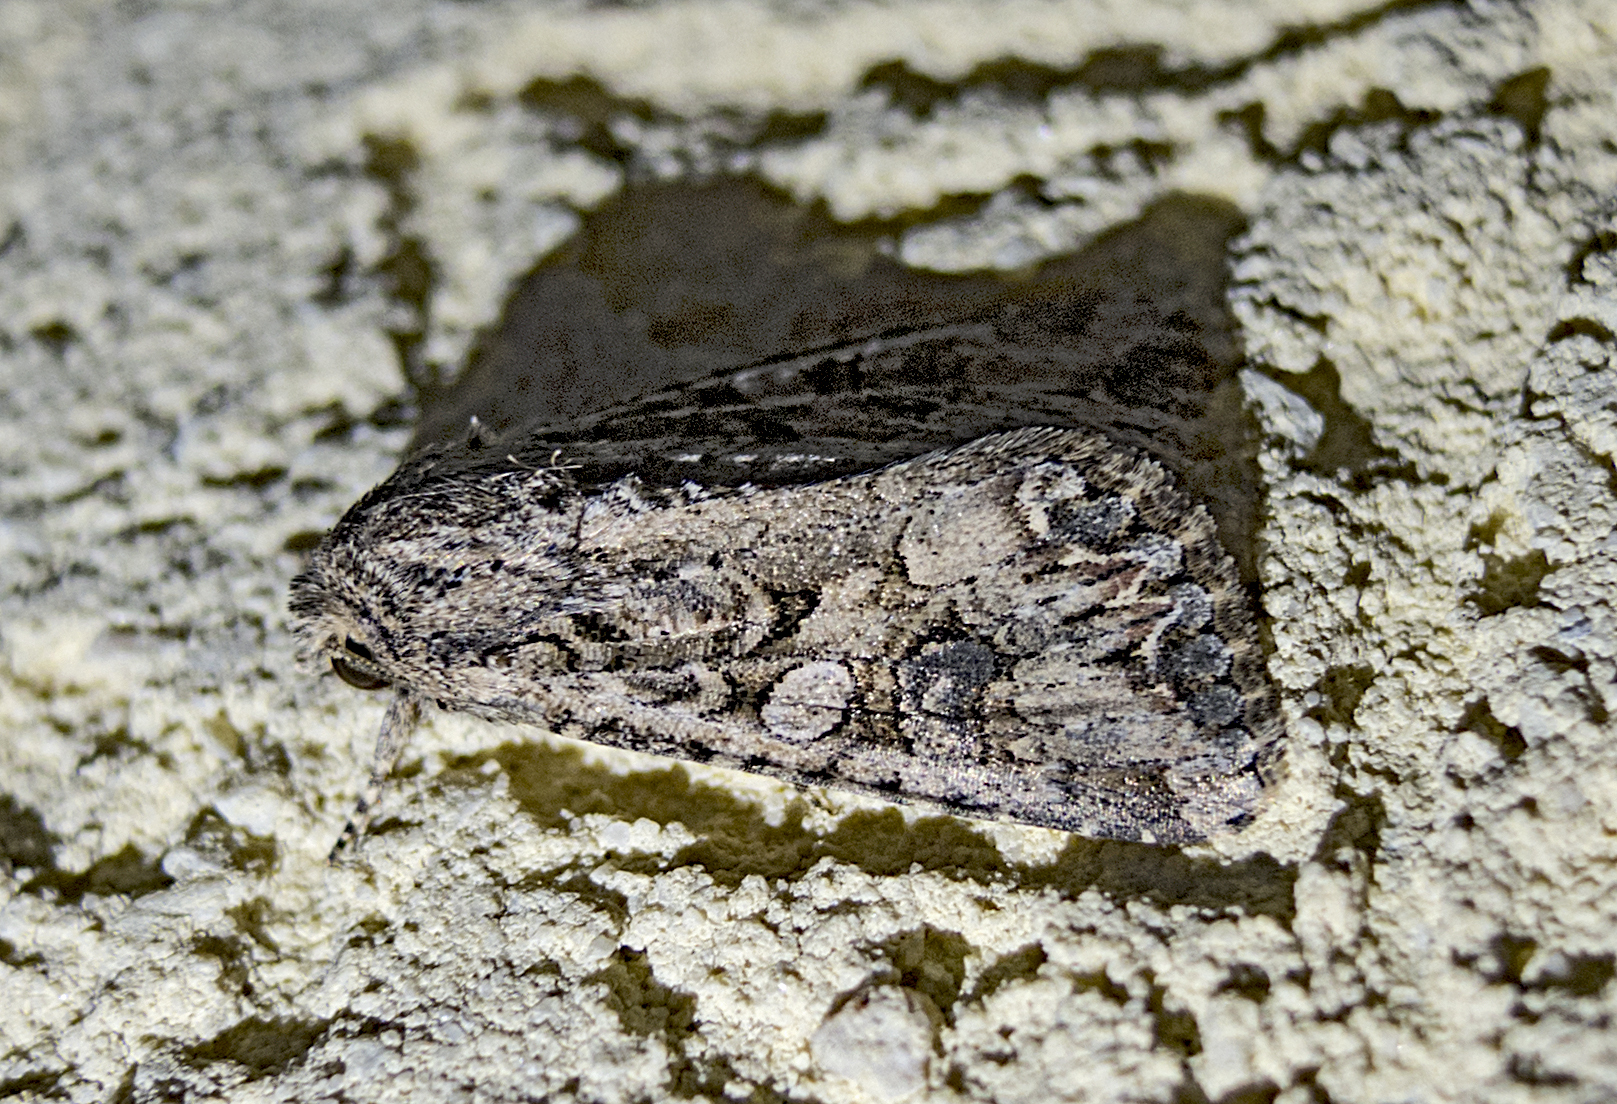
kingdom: Animalia
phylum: Arthropoda
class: Insecta
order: Lepidoptera
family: Noctuidae
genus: Anarta
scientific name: Anarta trifolii
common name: Clover cutworm moth
